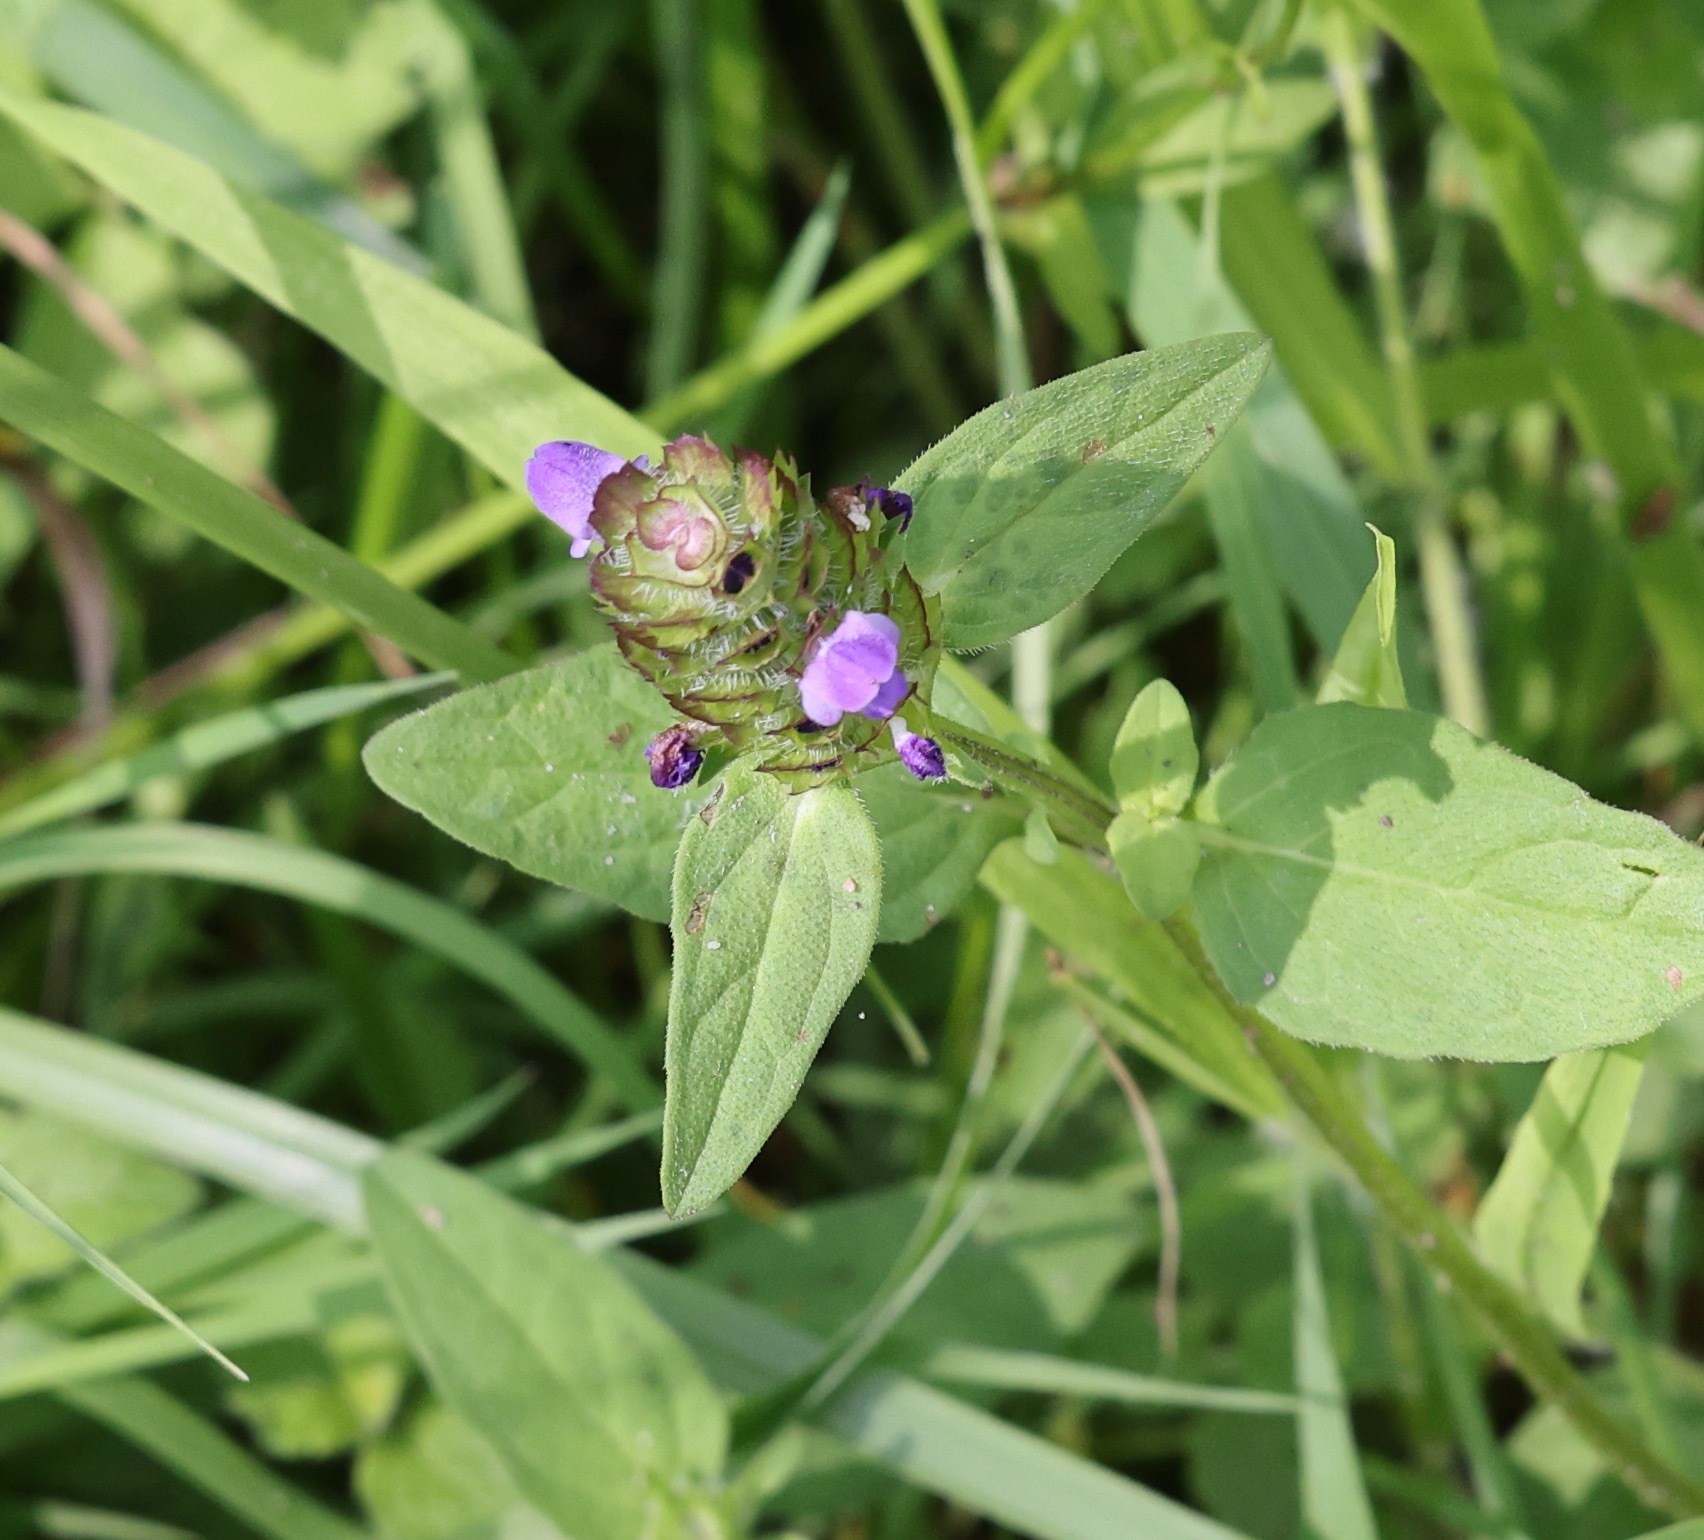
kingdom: Plantae
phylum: Tracheophyta
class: Magnoliopsida
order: Lamiales
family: Lamiaceae
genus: Prunella
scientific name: Prunella vulgaris
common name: Heal-all
